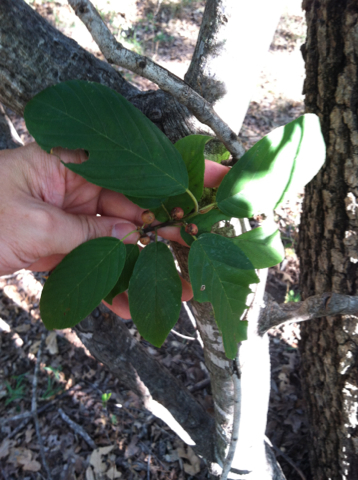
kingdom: Plantae
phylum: Tracheophyta
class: Magnoliopsida
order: Rosales
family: Rhamnaceae
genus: Frangula
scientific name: Frangula caroliniana
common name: Carolina buckthorn
